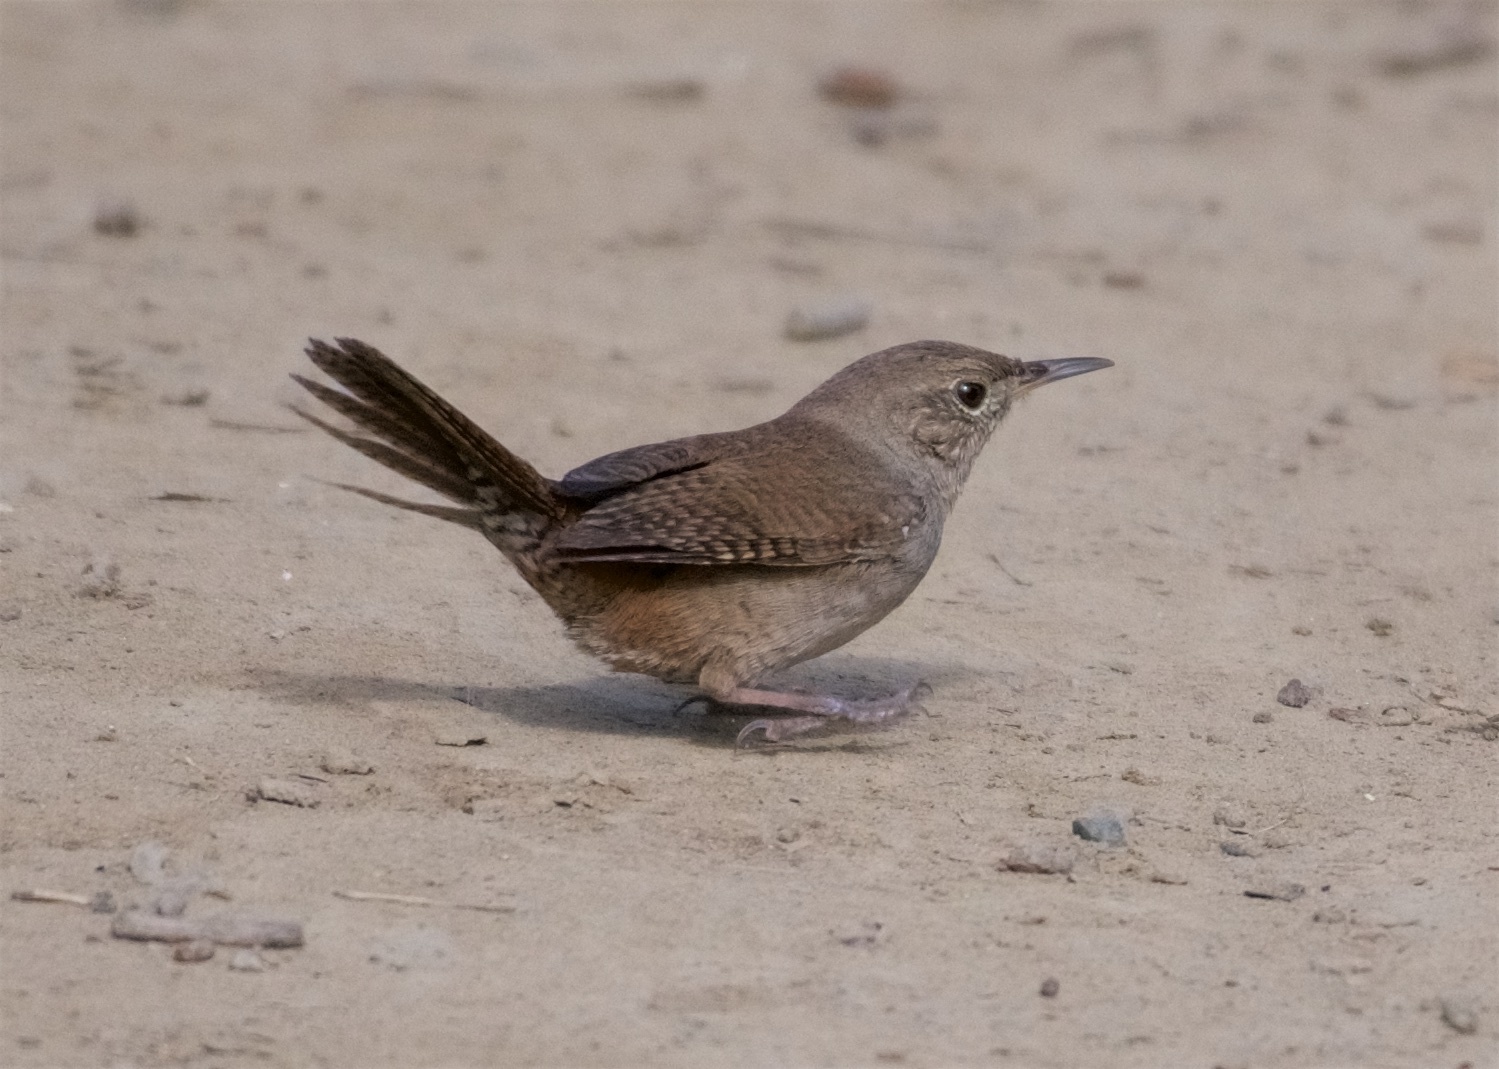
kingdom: Animalia
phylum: Chordata
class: Aves
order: Passeriformes
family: Troglodytidae
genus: Troglodytes
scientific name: Troglodytes aedon
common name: House wren
